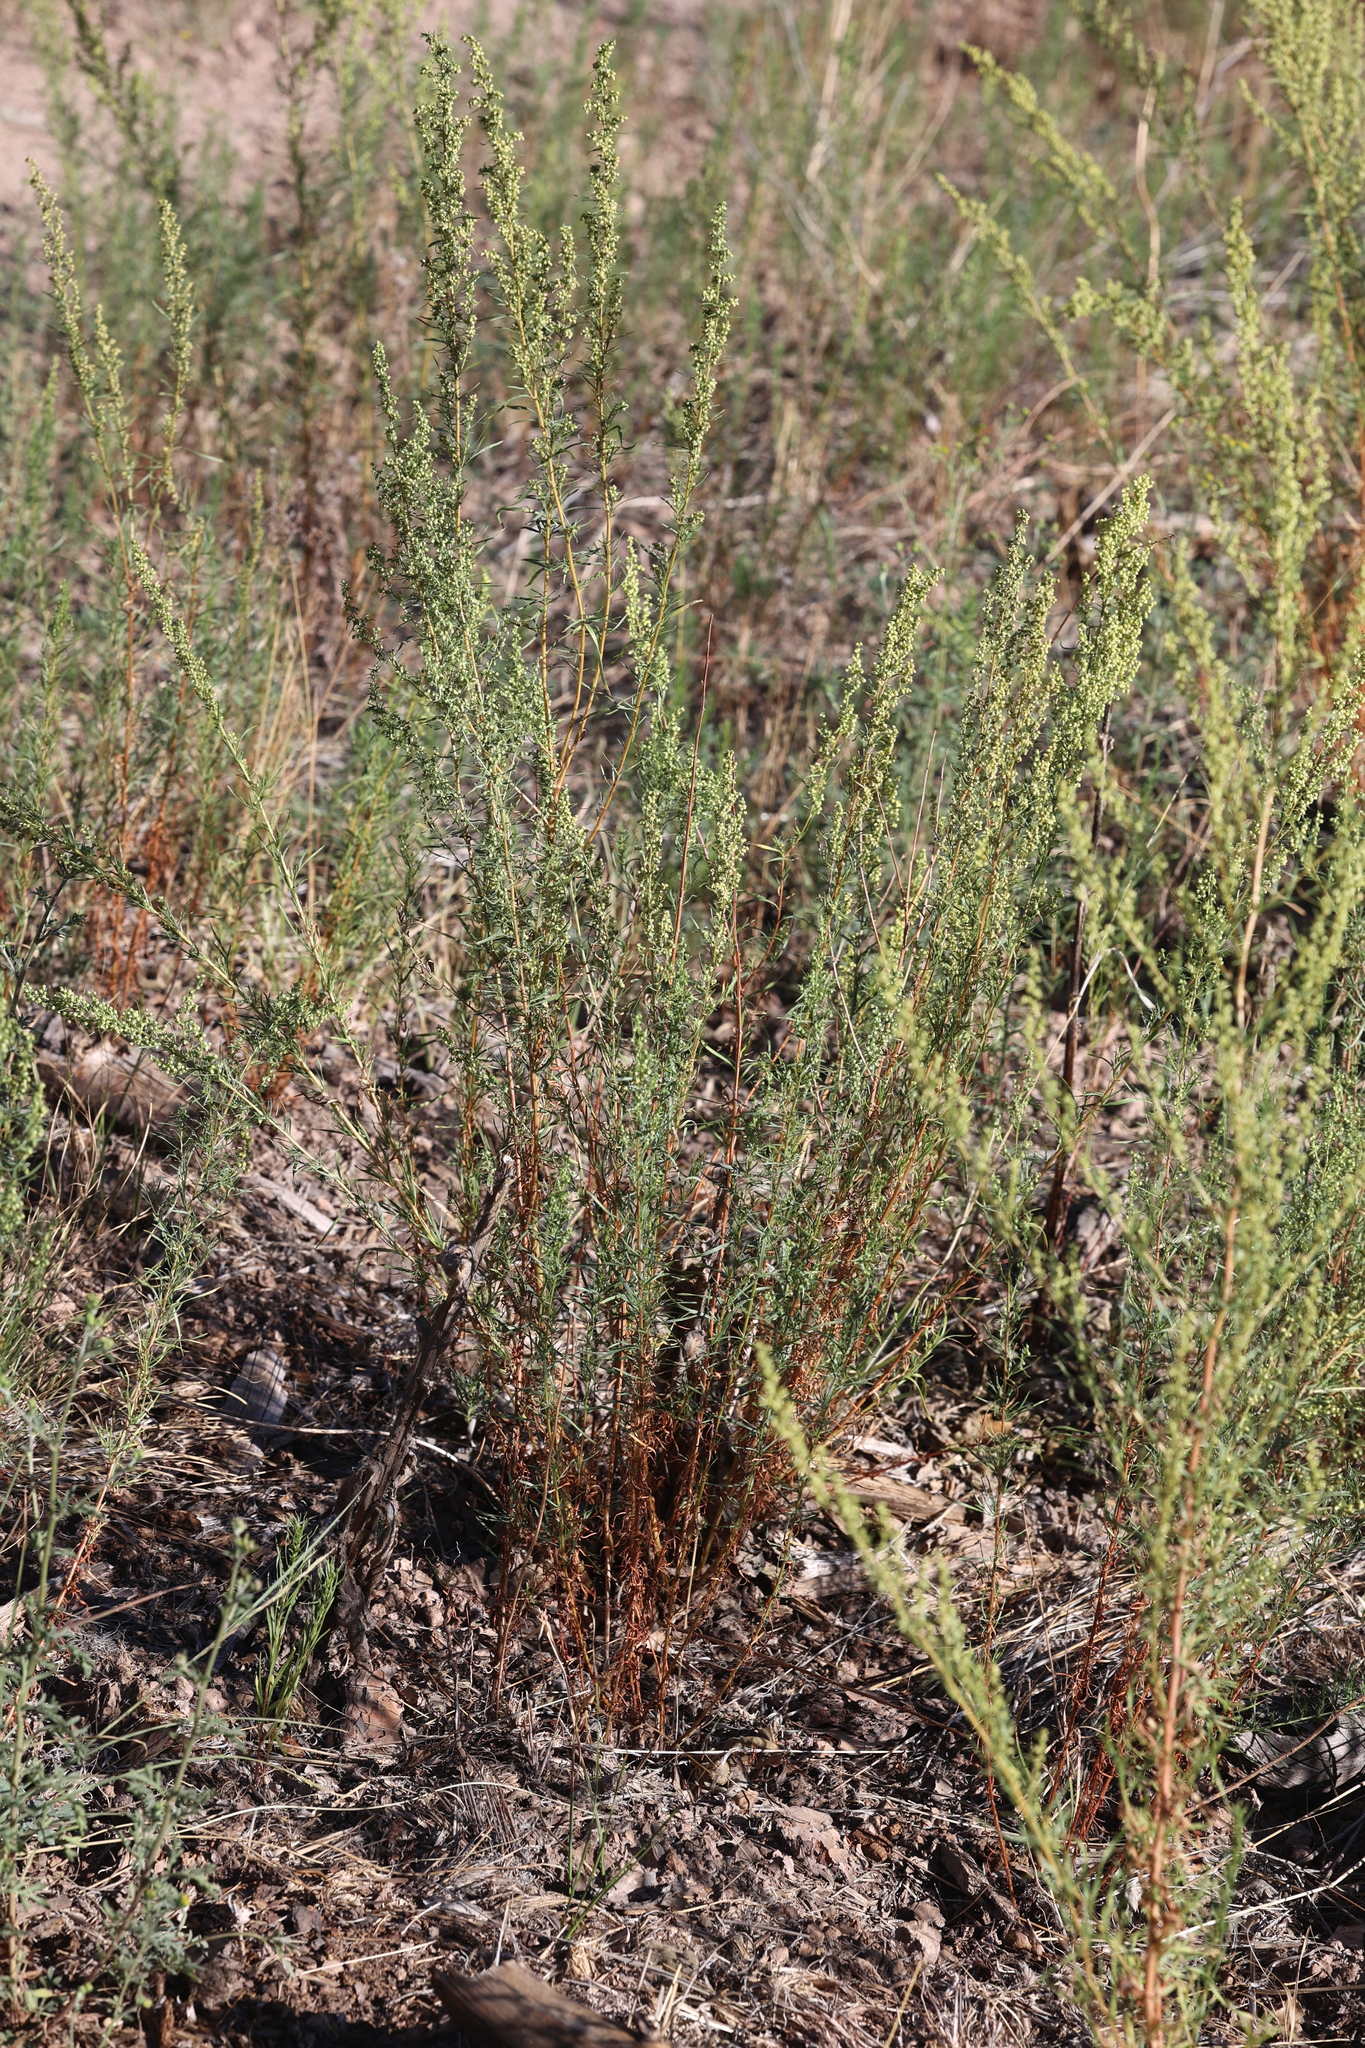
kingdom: Plantae
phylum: Tracheophyta
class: Magnoliopsida
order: Asterales
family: Asteraceae
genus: Artemisia
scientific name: Artemisia dracunculus
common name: Tarragon
